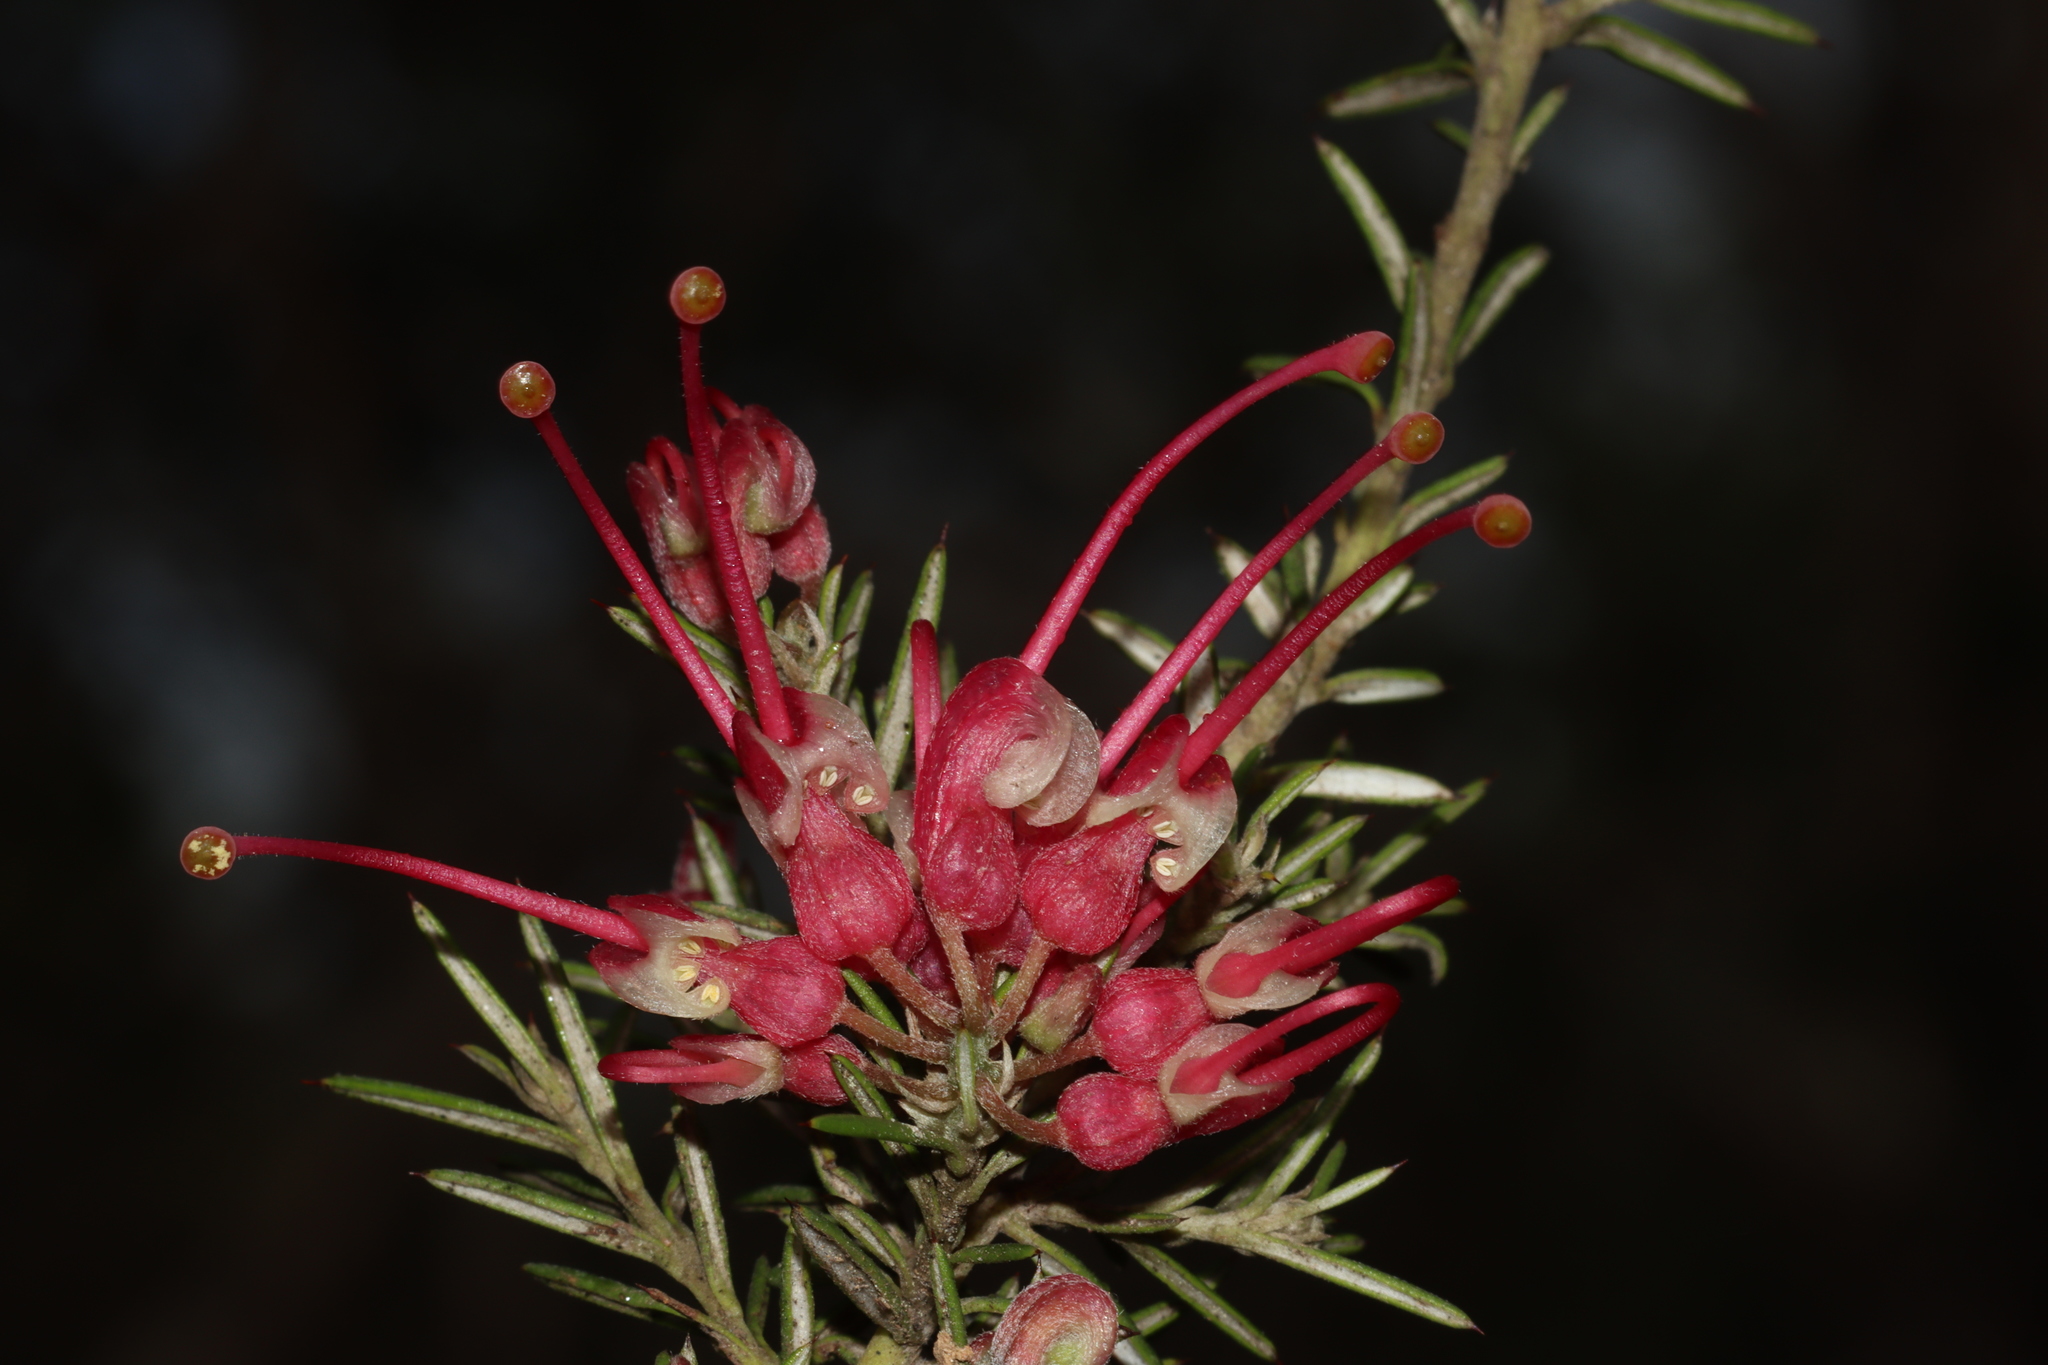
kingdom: Plantae
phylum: Tracheophyta
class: Magnoliopsida
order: Proteales
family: Proteaceae
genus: Grevillea
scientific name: Grevillea lavandulacea
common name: Lavender grevillea
